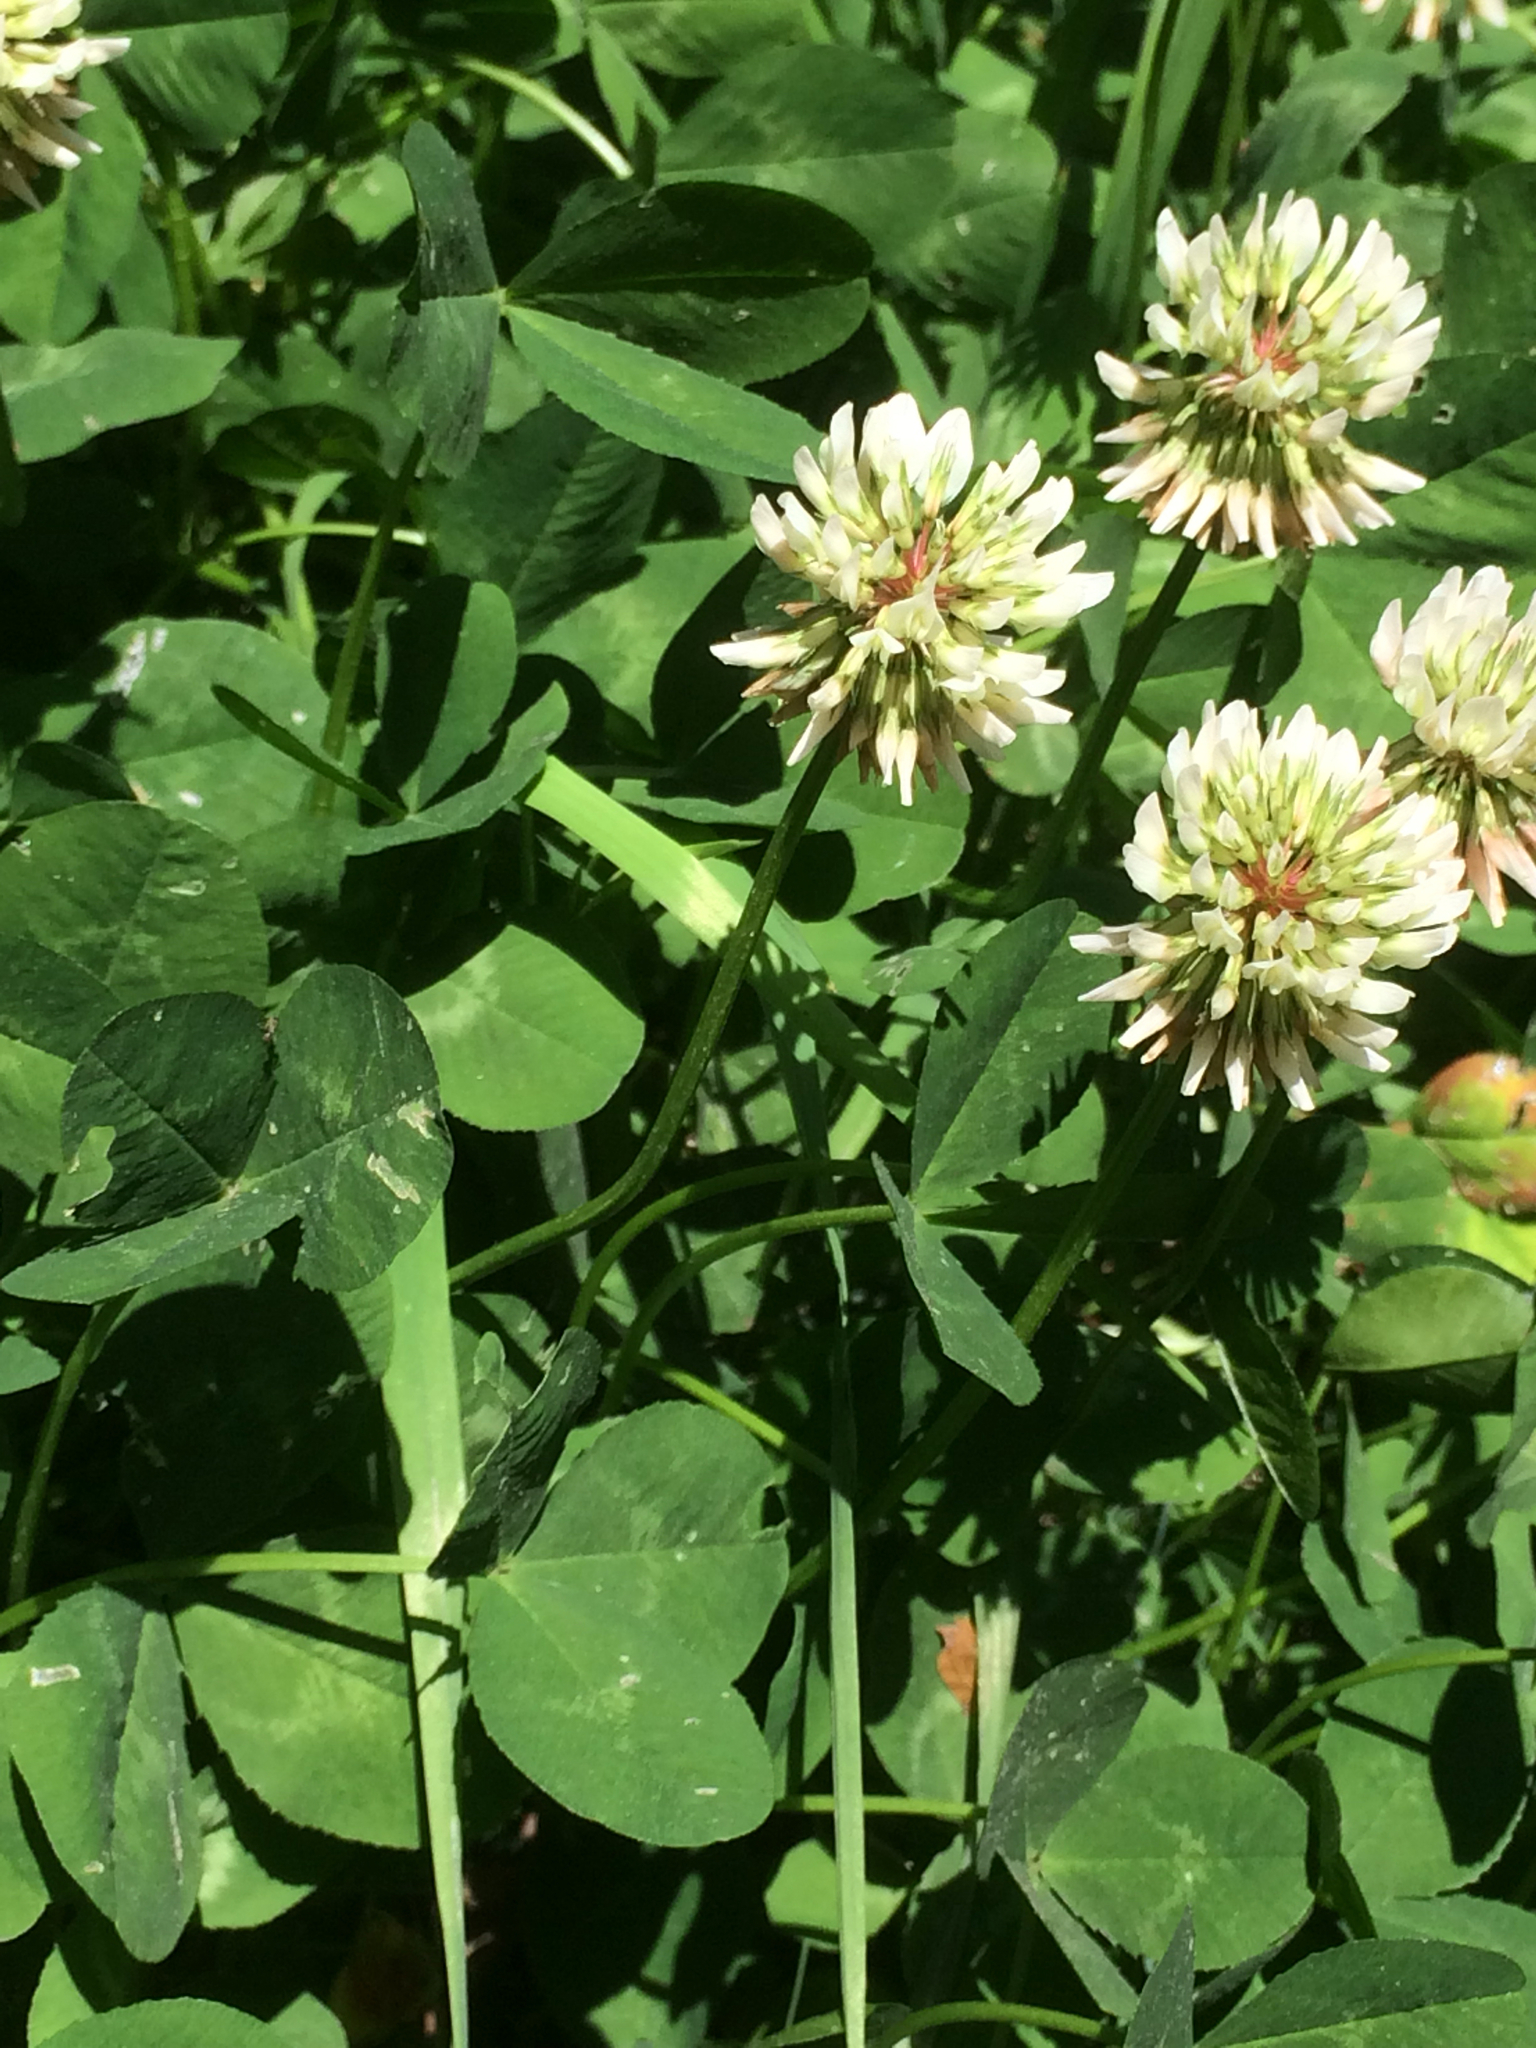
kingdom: Plantae
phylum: Tracheophyta
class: Magnoliopsida
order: Fabales
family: Fabaceae
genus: Trifolium
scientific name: Trifolium repens
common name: White clover
